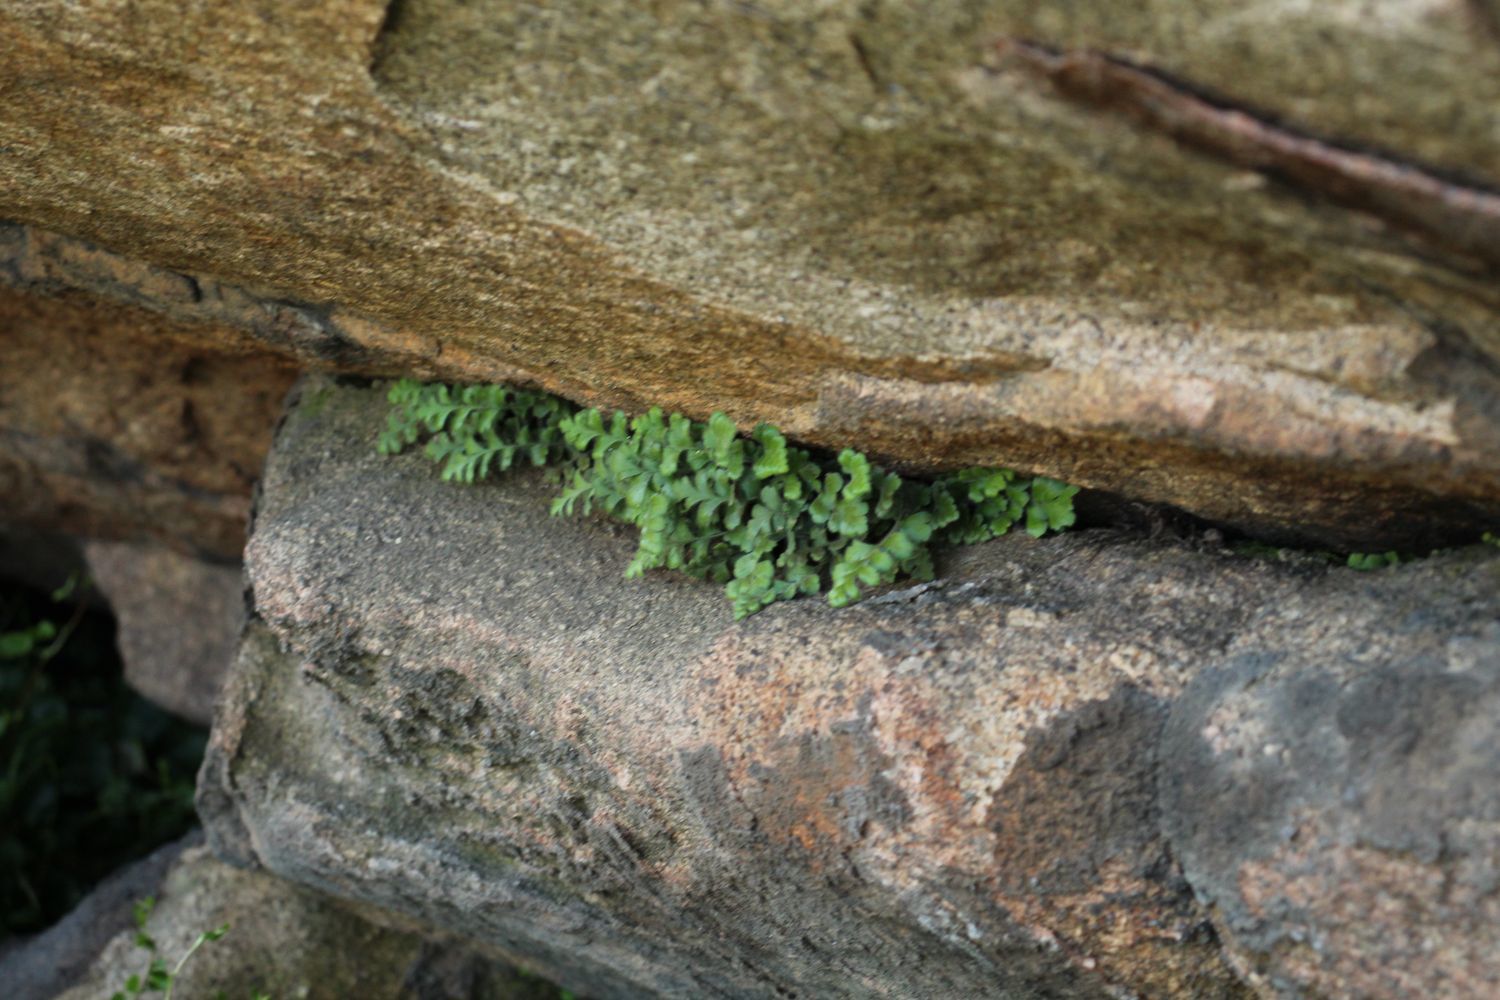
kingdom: Plantae
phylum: Tracheophyta
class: Polypodiopsida
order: Polypodiales
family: Aspleniaceae
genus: Asplenium
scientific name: Asplenium subglandulosum
